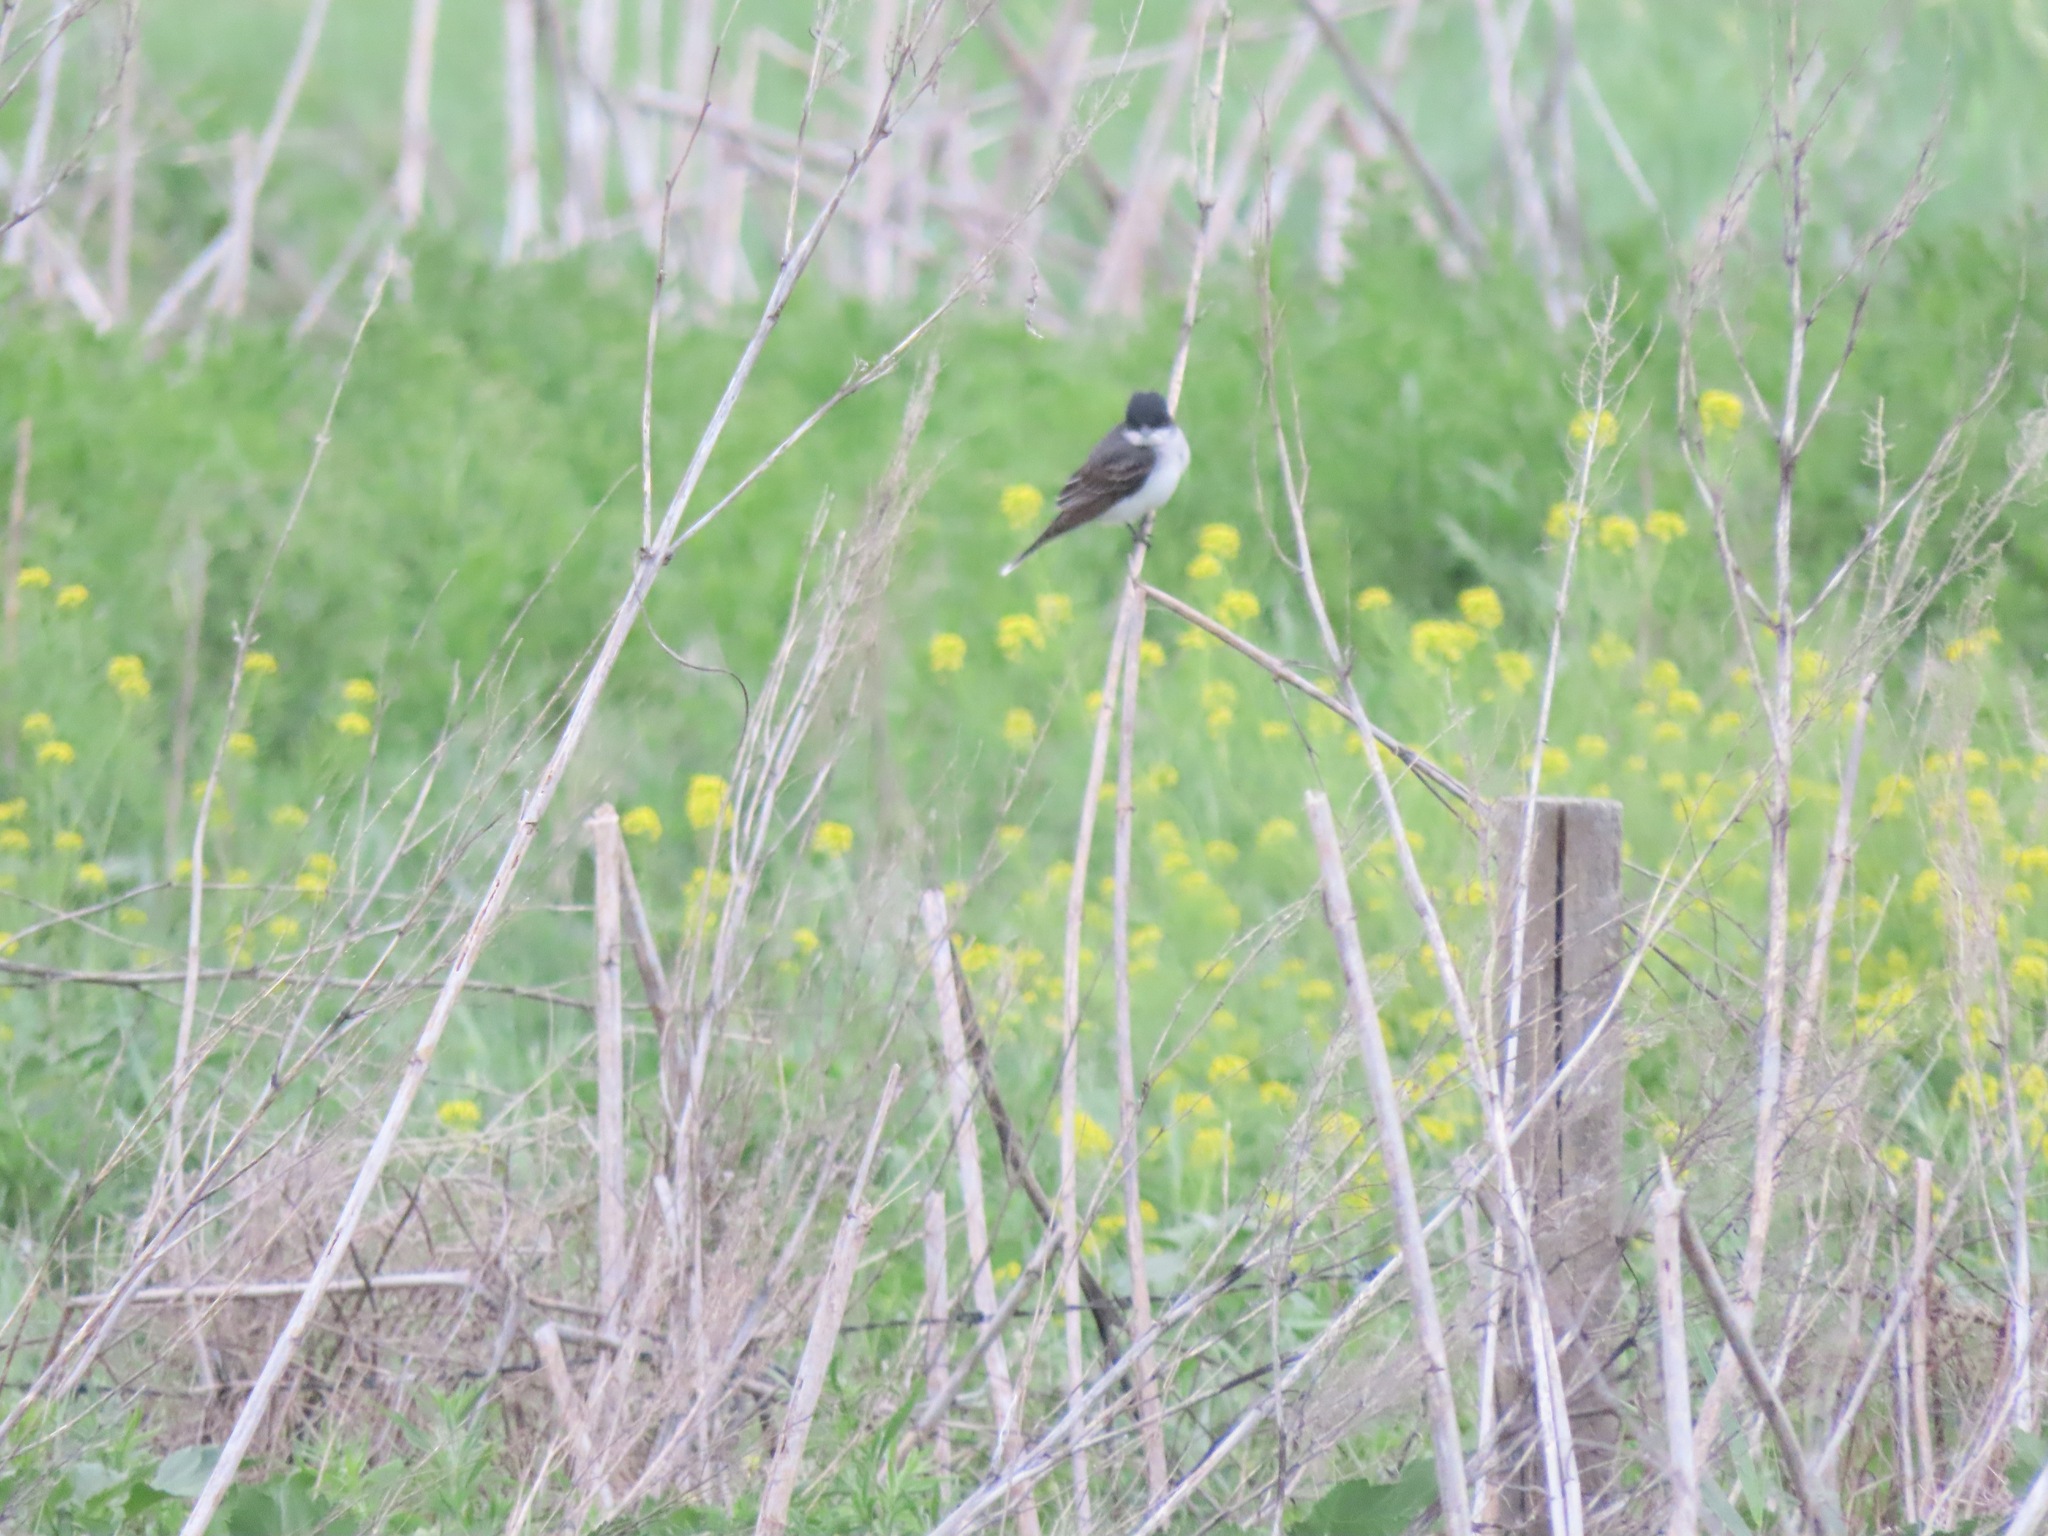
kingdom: Animalia
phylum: Chordata
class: Aves
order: Passeriformes
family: Tyrannidae
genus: Tyrannus
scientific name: Tyrannus tyrannus
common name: Eastern kingbird
